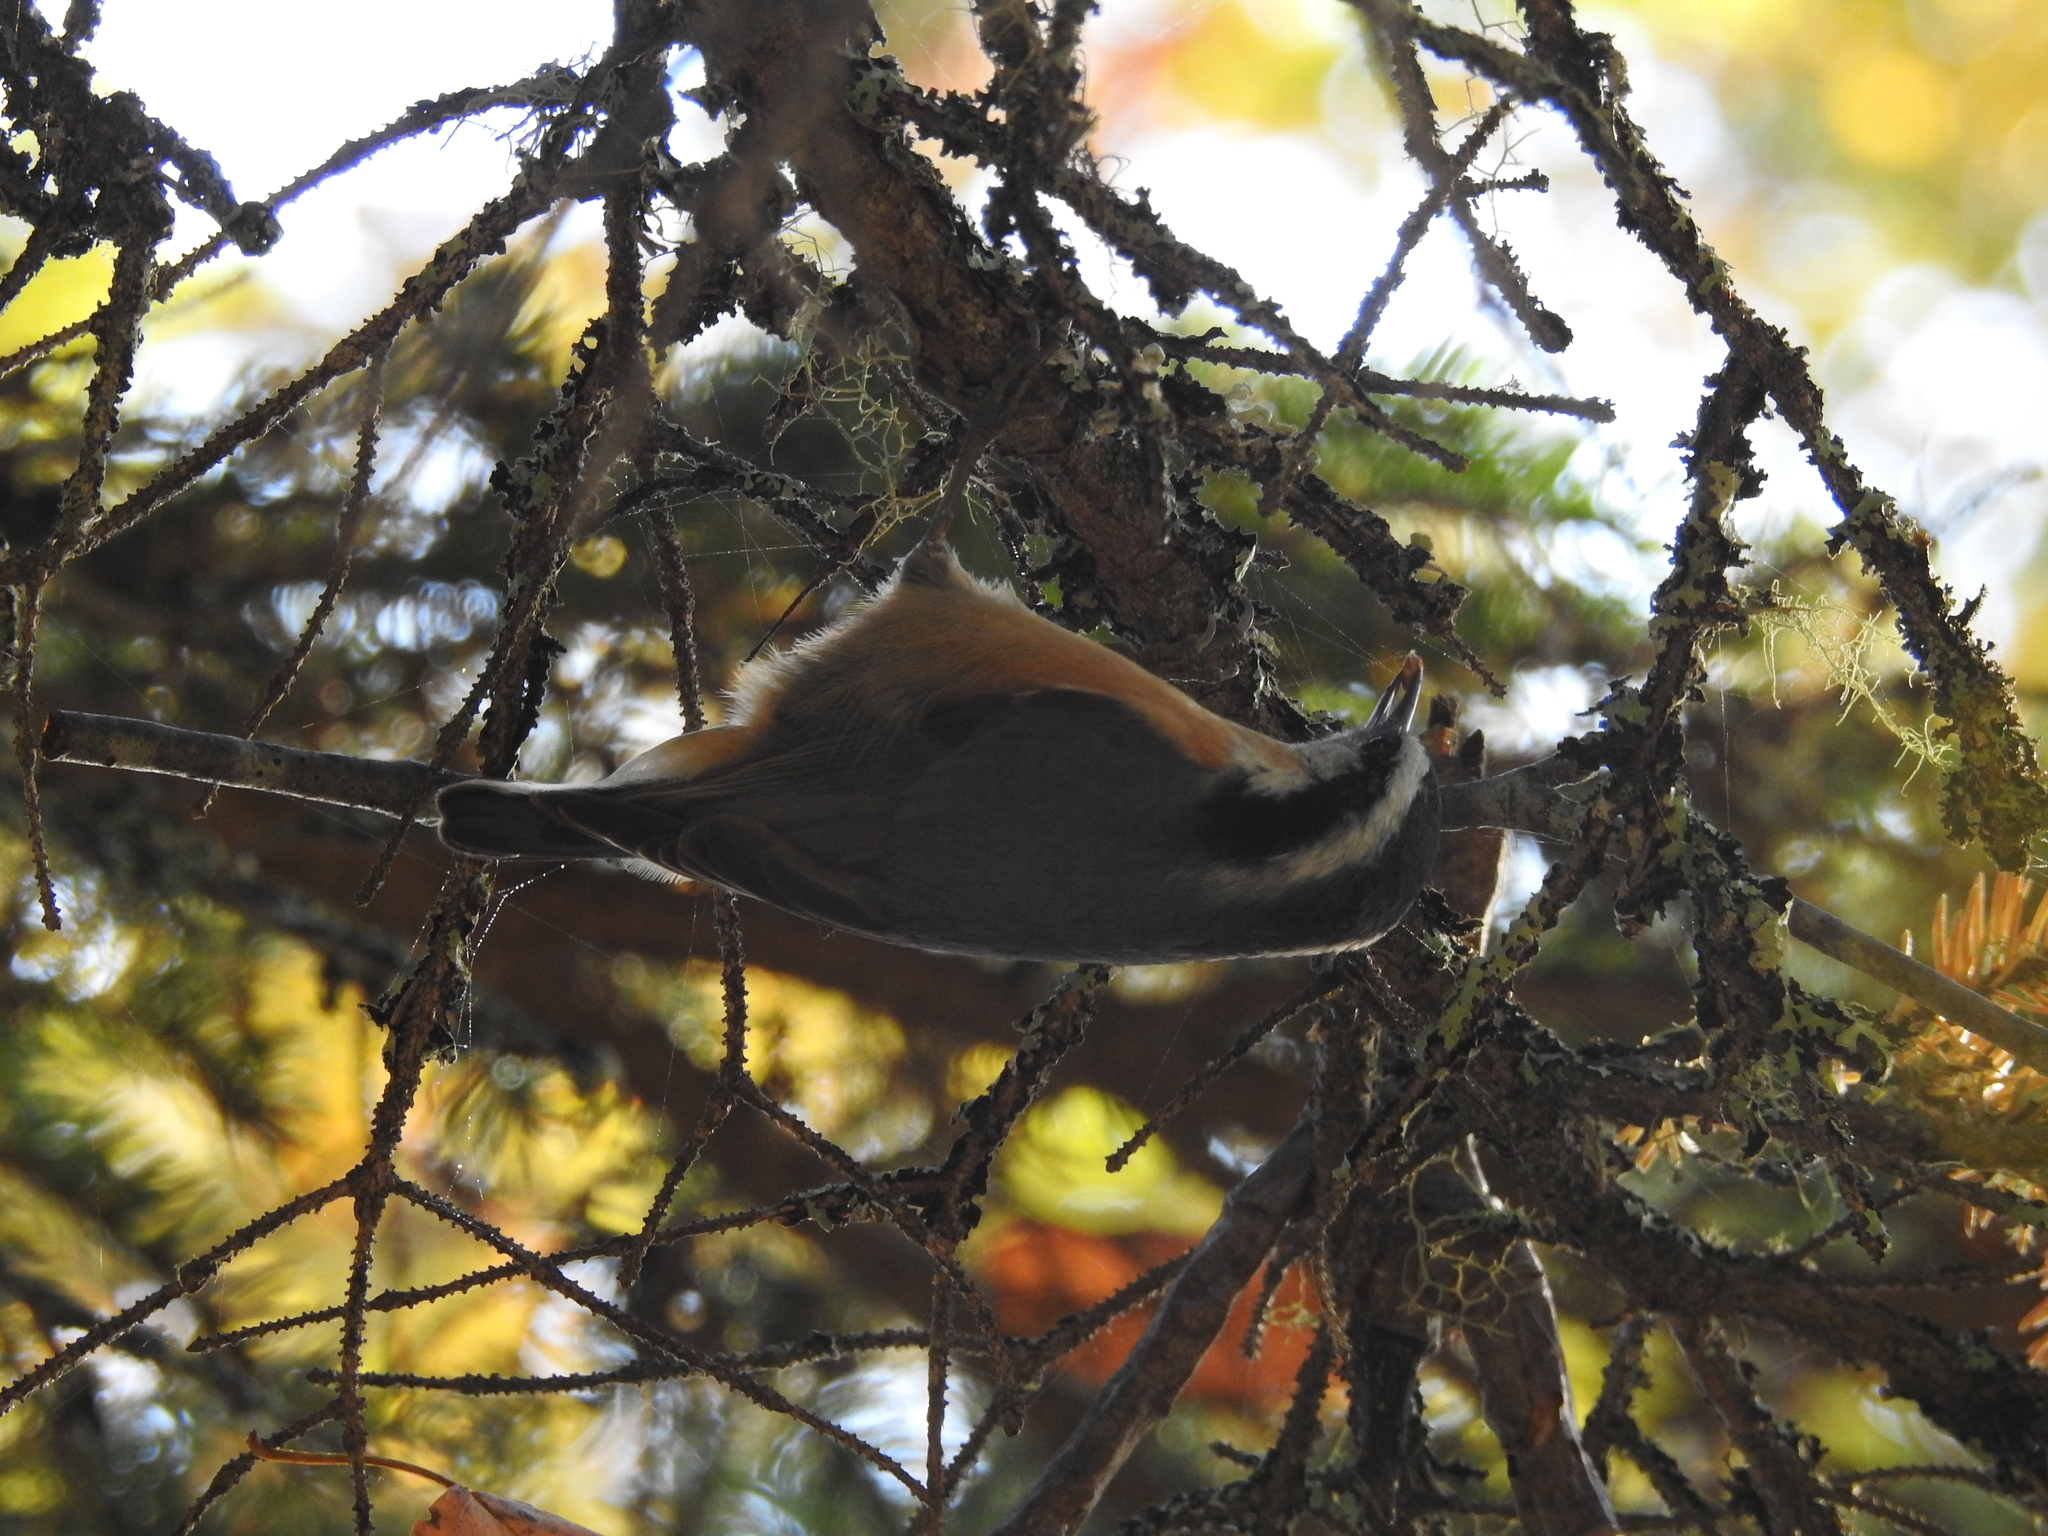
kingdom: Animalia
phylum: Chordata
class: Aves
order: Passeriformes
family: Sittidae
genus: Sitta
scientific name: Sitta canadensis
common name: Red-breasted nuthatch
